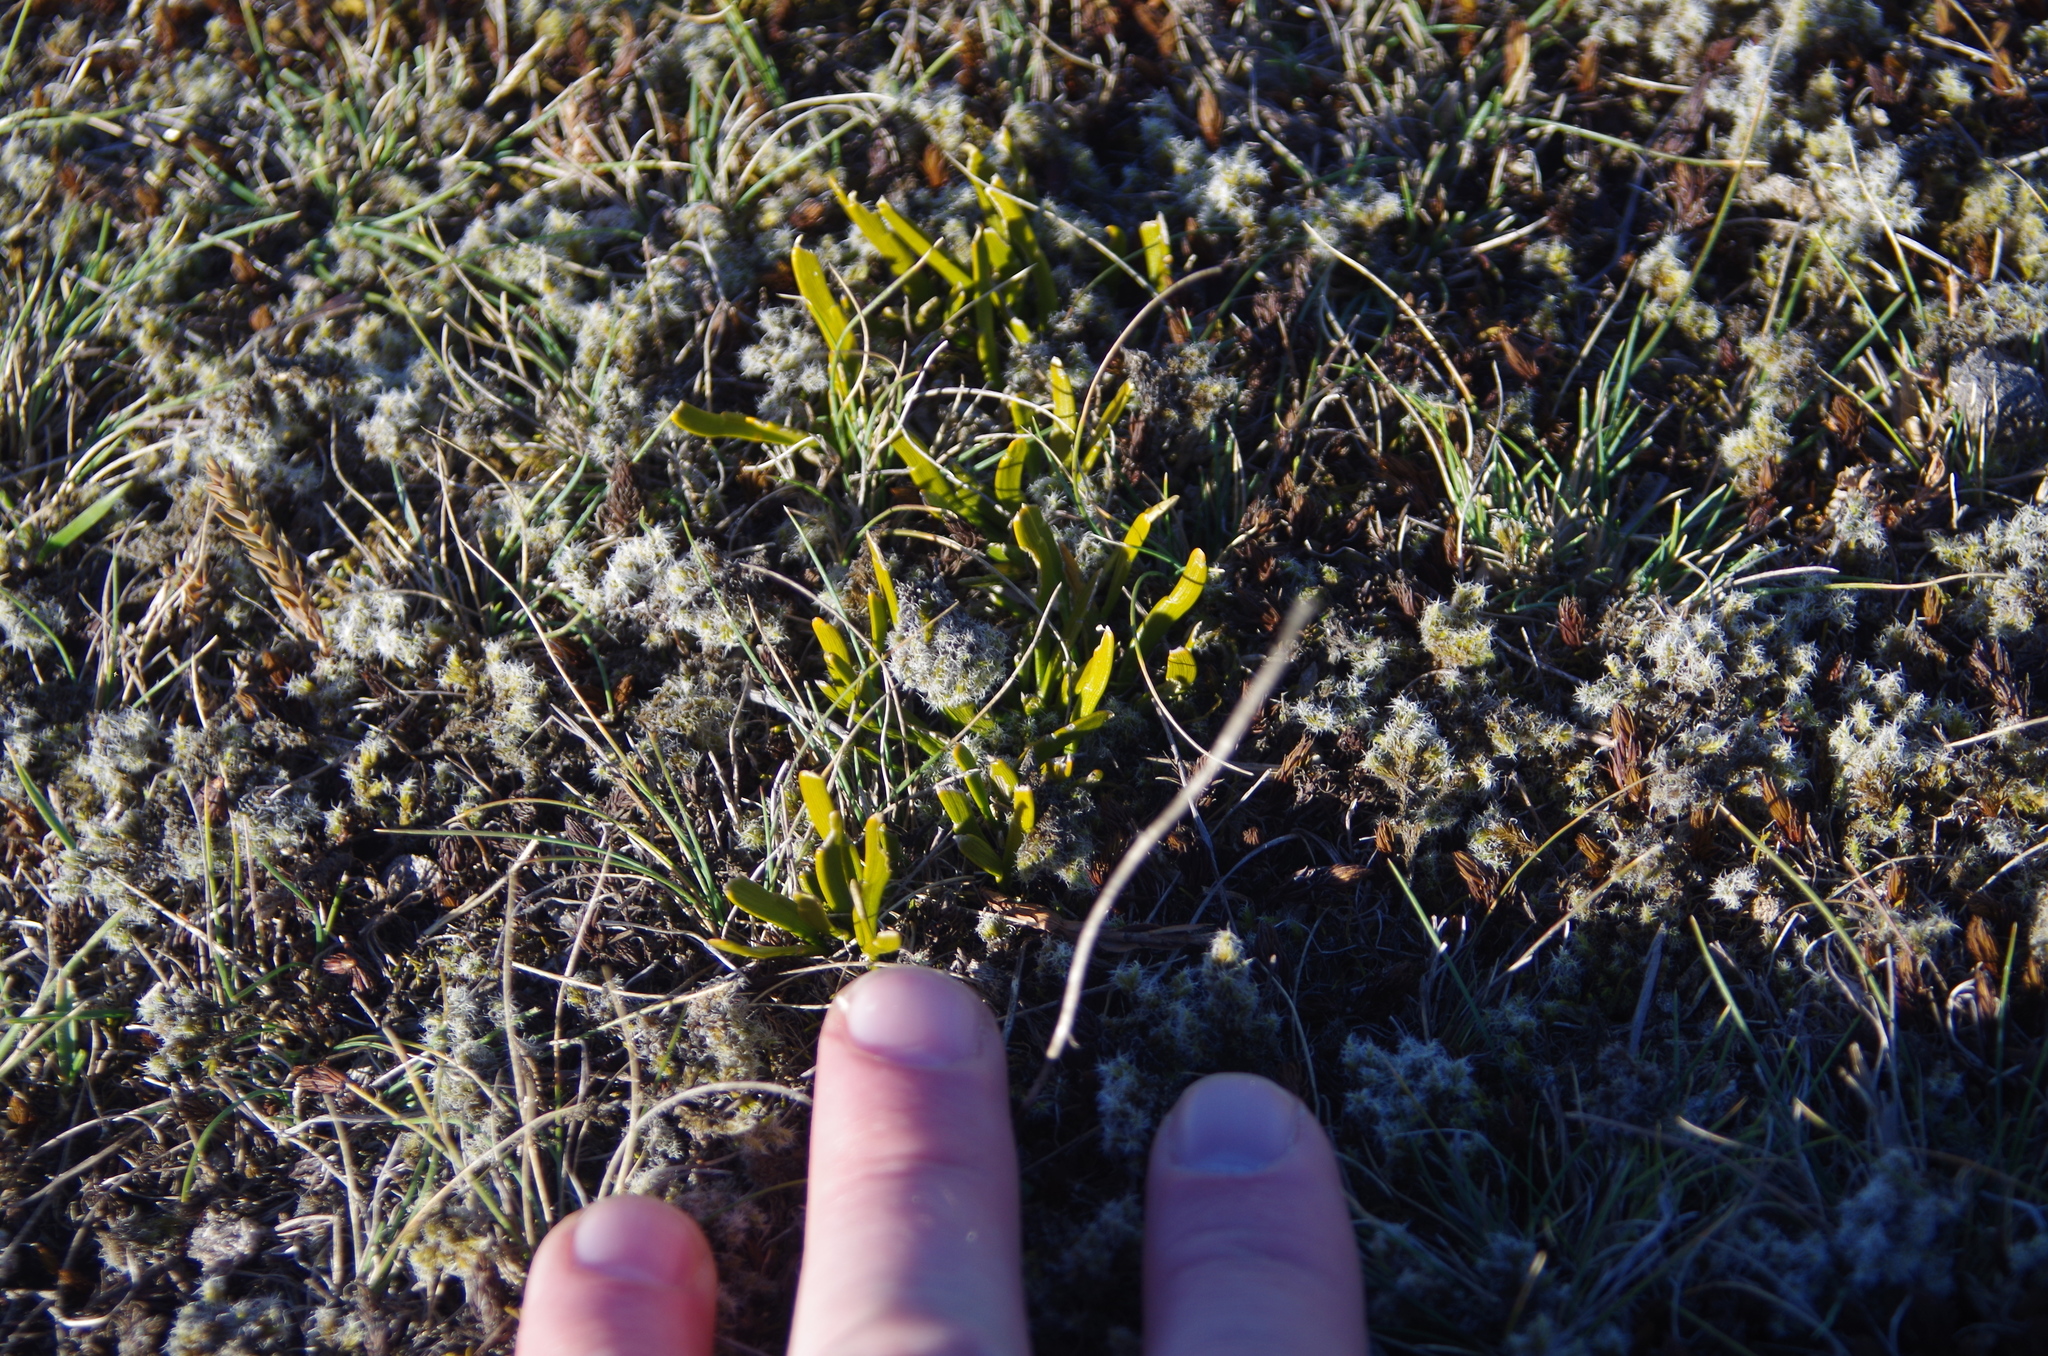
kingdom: Plantae
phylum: Tracheophyta
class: Magnoliopsida
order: Fabales
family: Fabaceae
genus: Carmichaelia
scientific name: Carmichaelia corrugata
